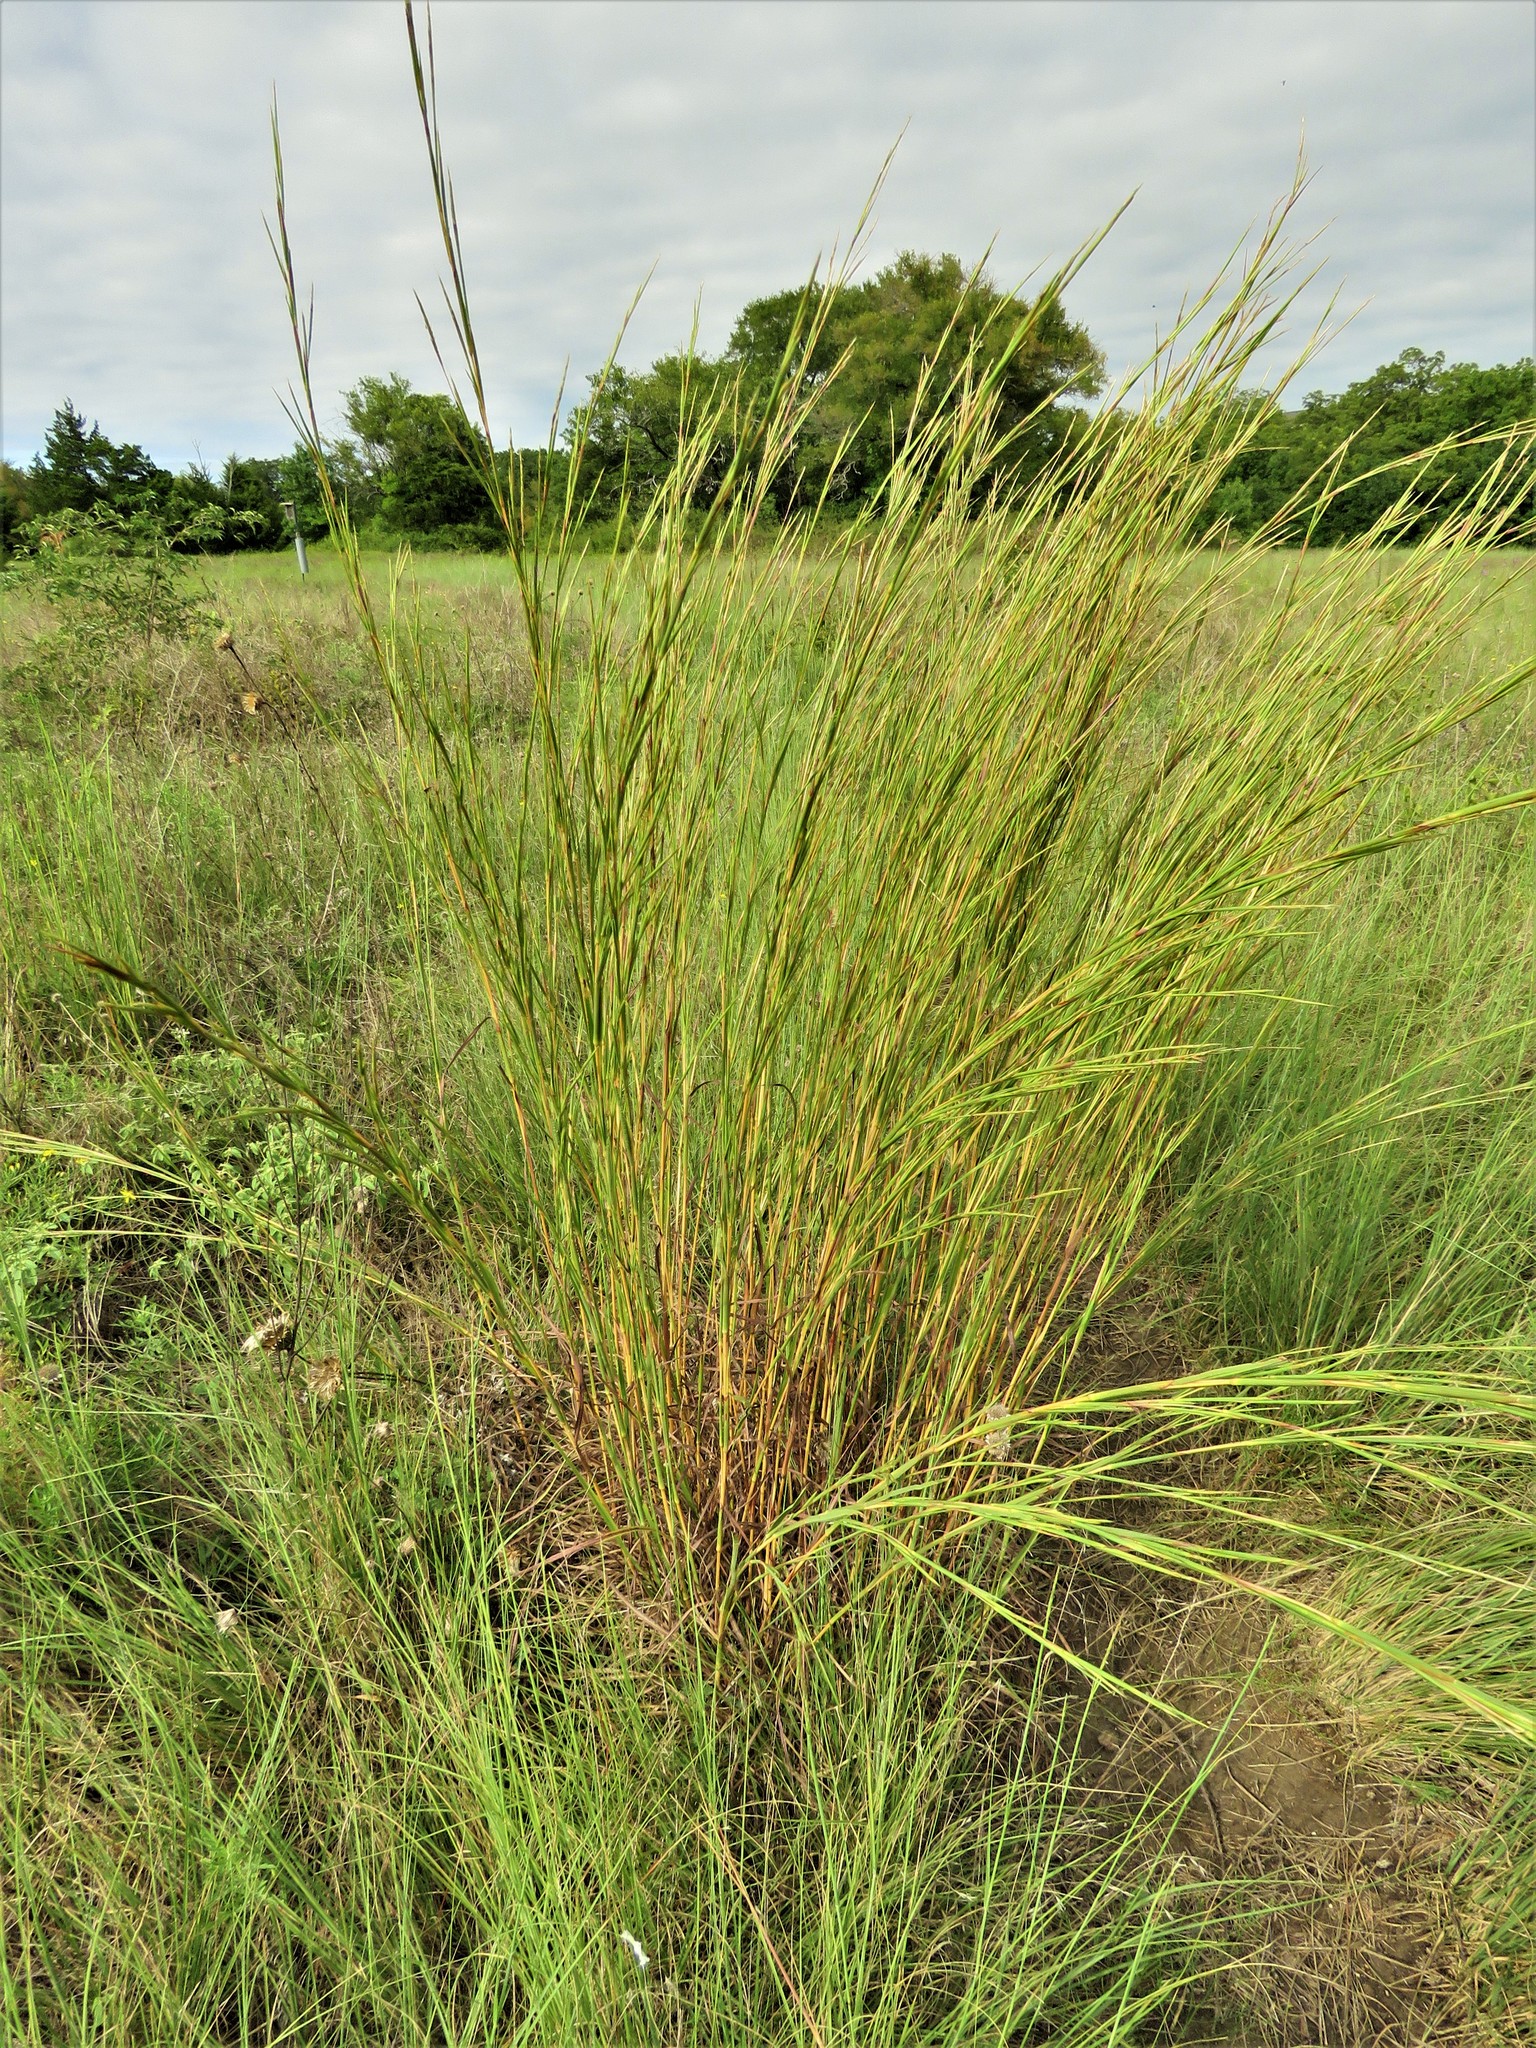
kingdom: Plantae
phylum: Tracheophyta
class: Liliopsida
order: Poales
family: Poaceae
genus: Schizachyrium
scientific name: Schizachyrium scoparium
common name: Little bluestem
